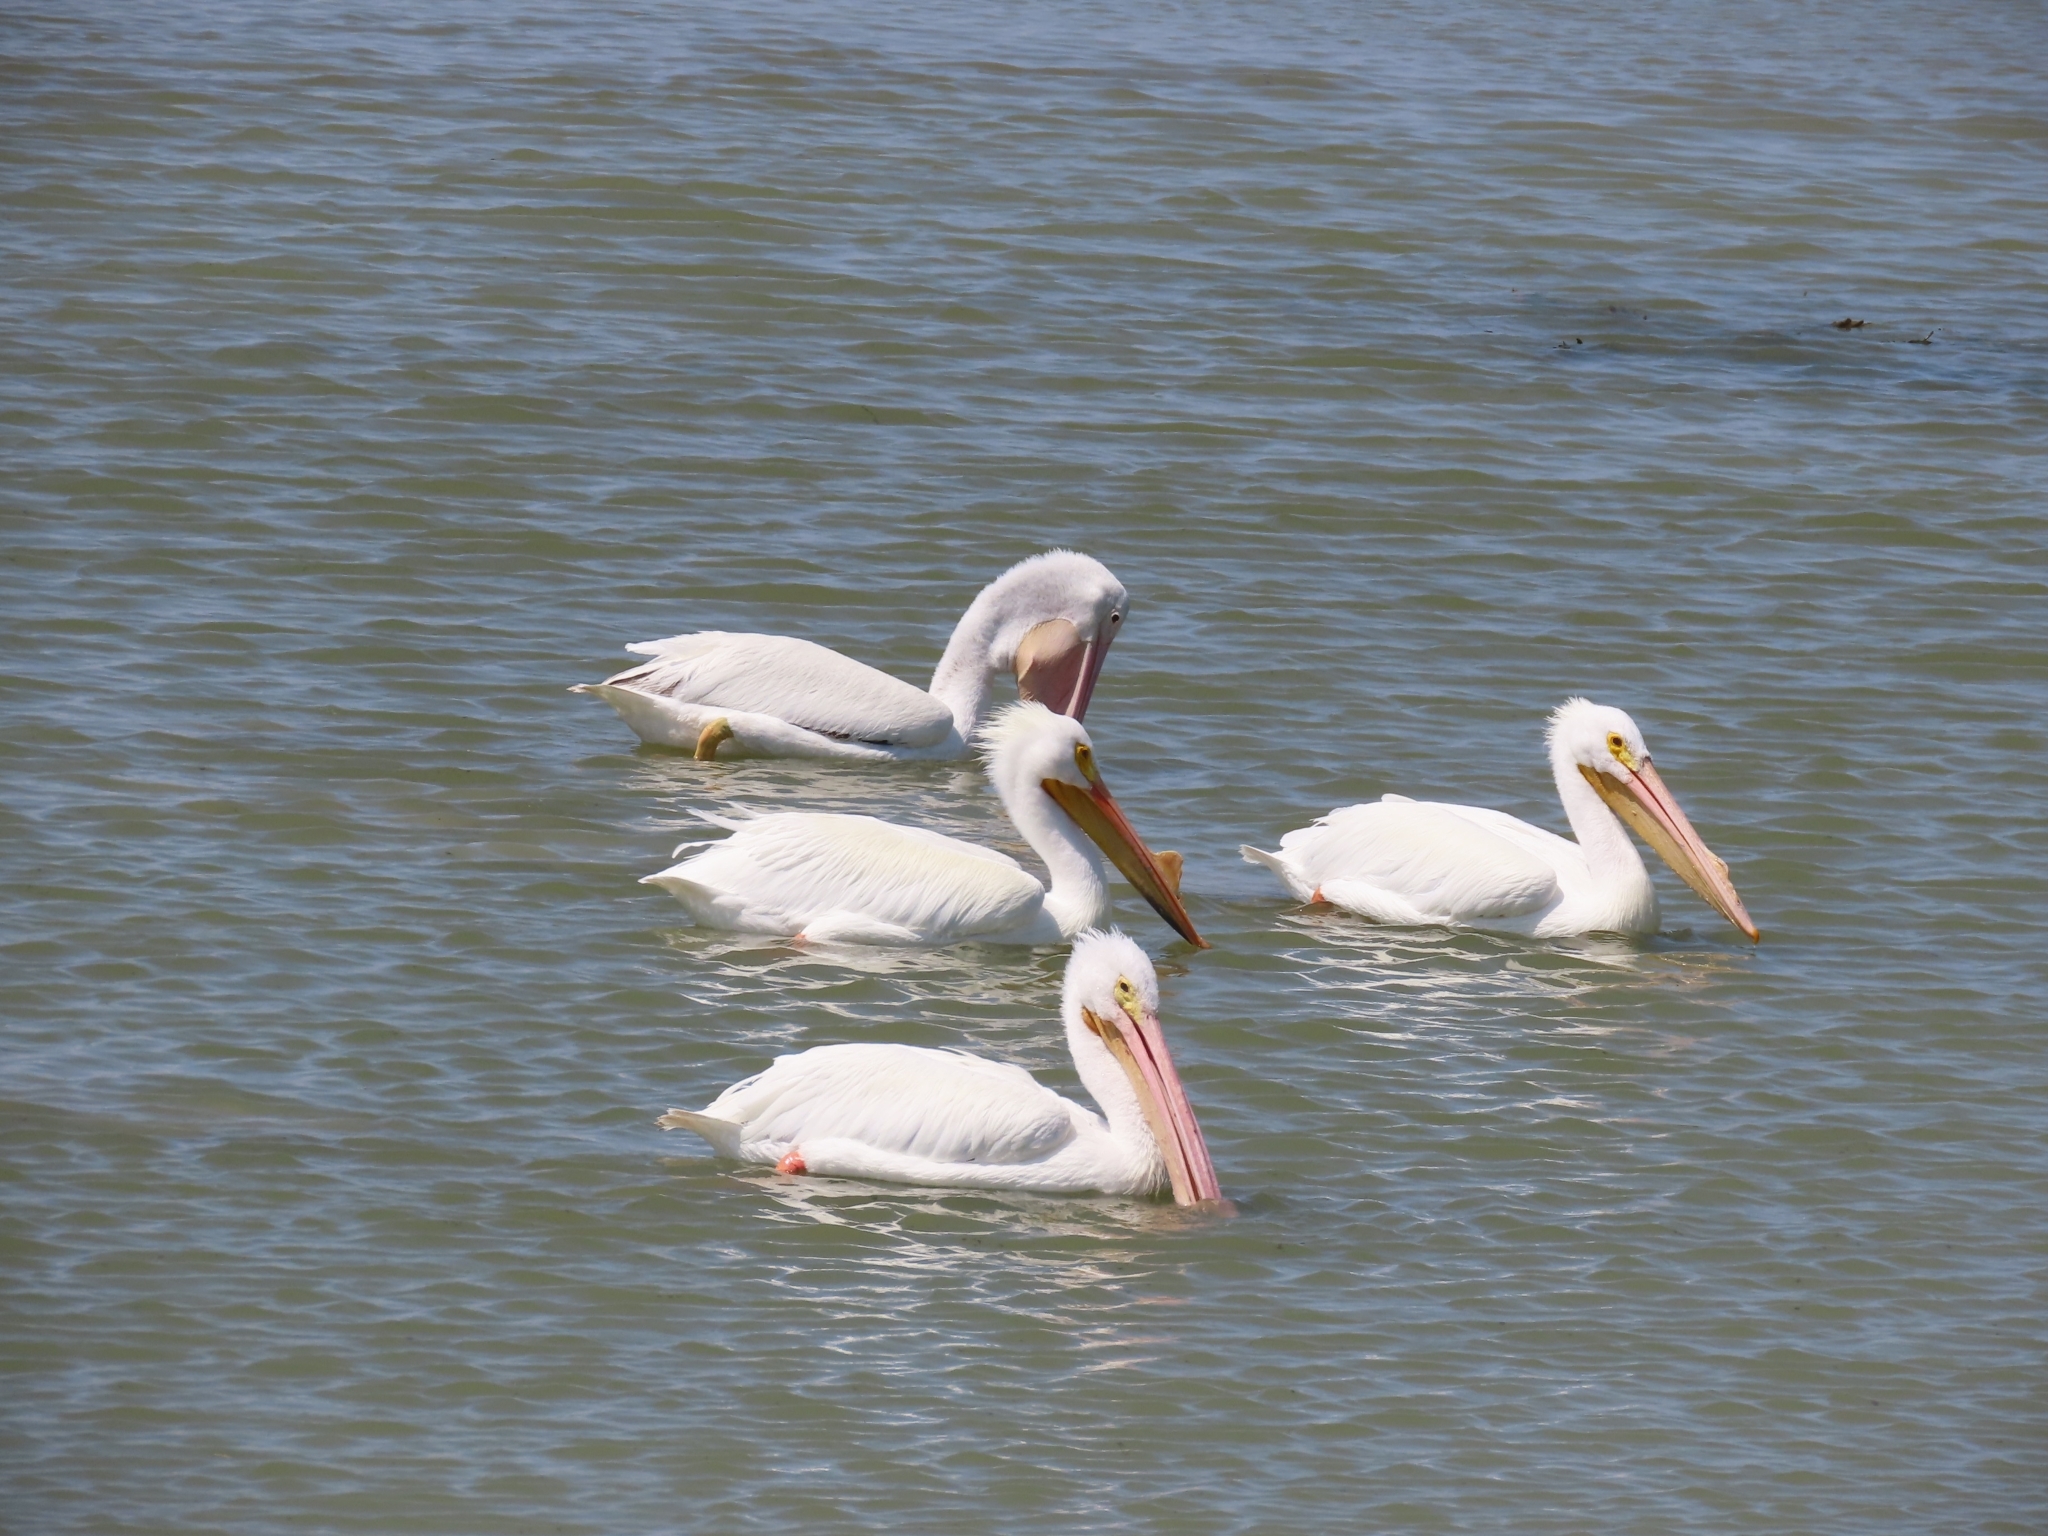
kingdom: Animalia
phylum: Chordata
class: Aves
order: Pelecaniformes
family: Pelecanidae
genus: Pelecanus
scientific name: Pelecanus erythrorhynchos
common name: American white pelican
